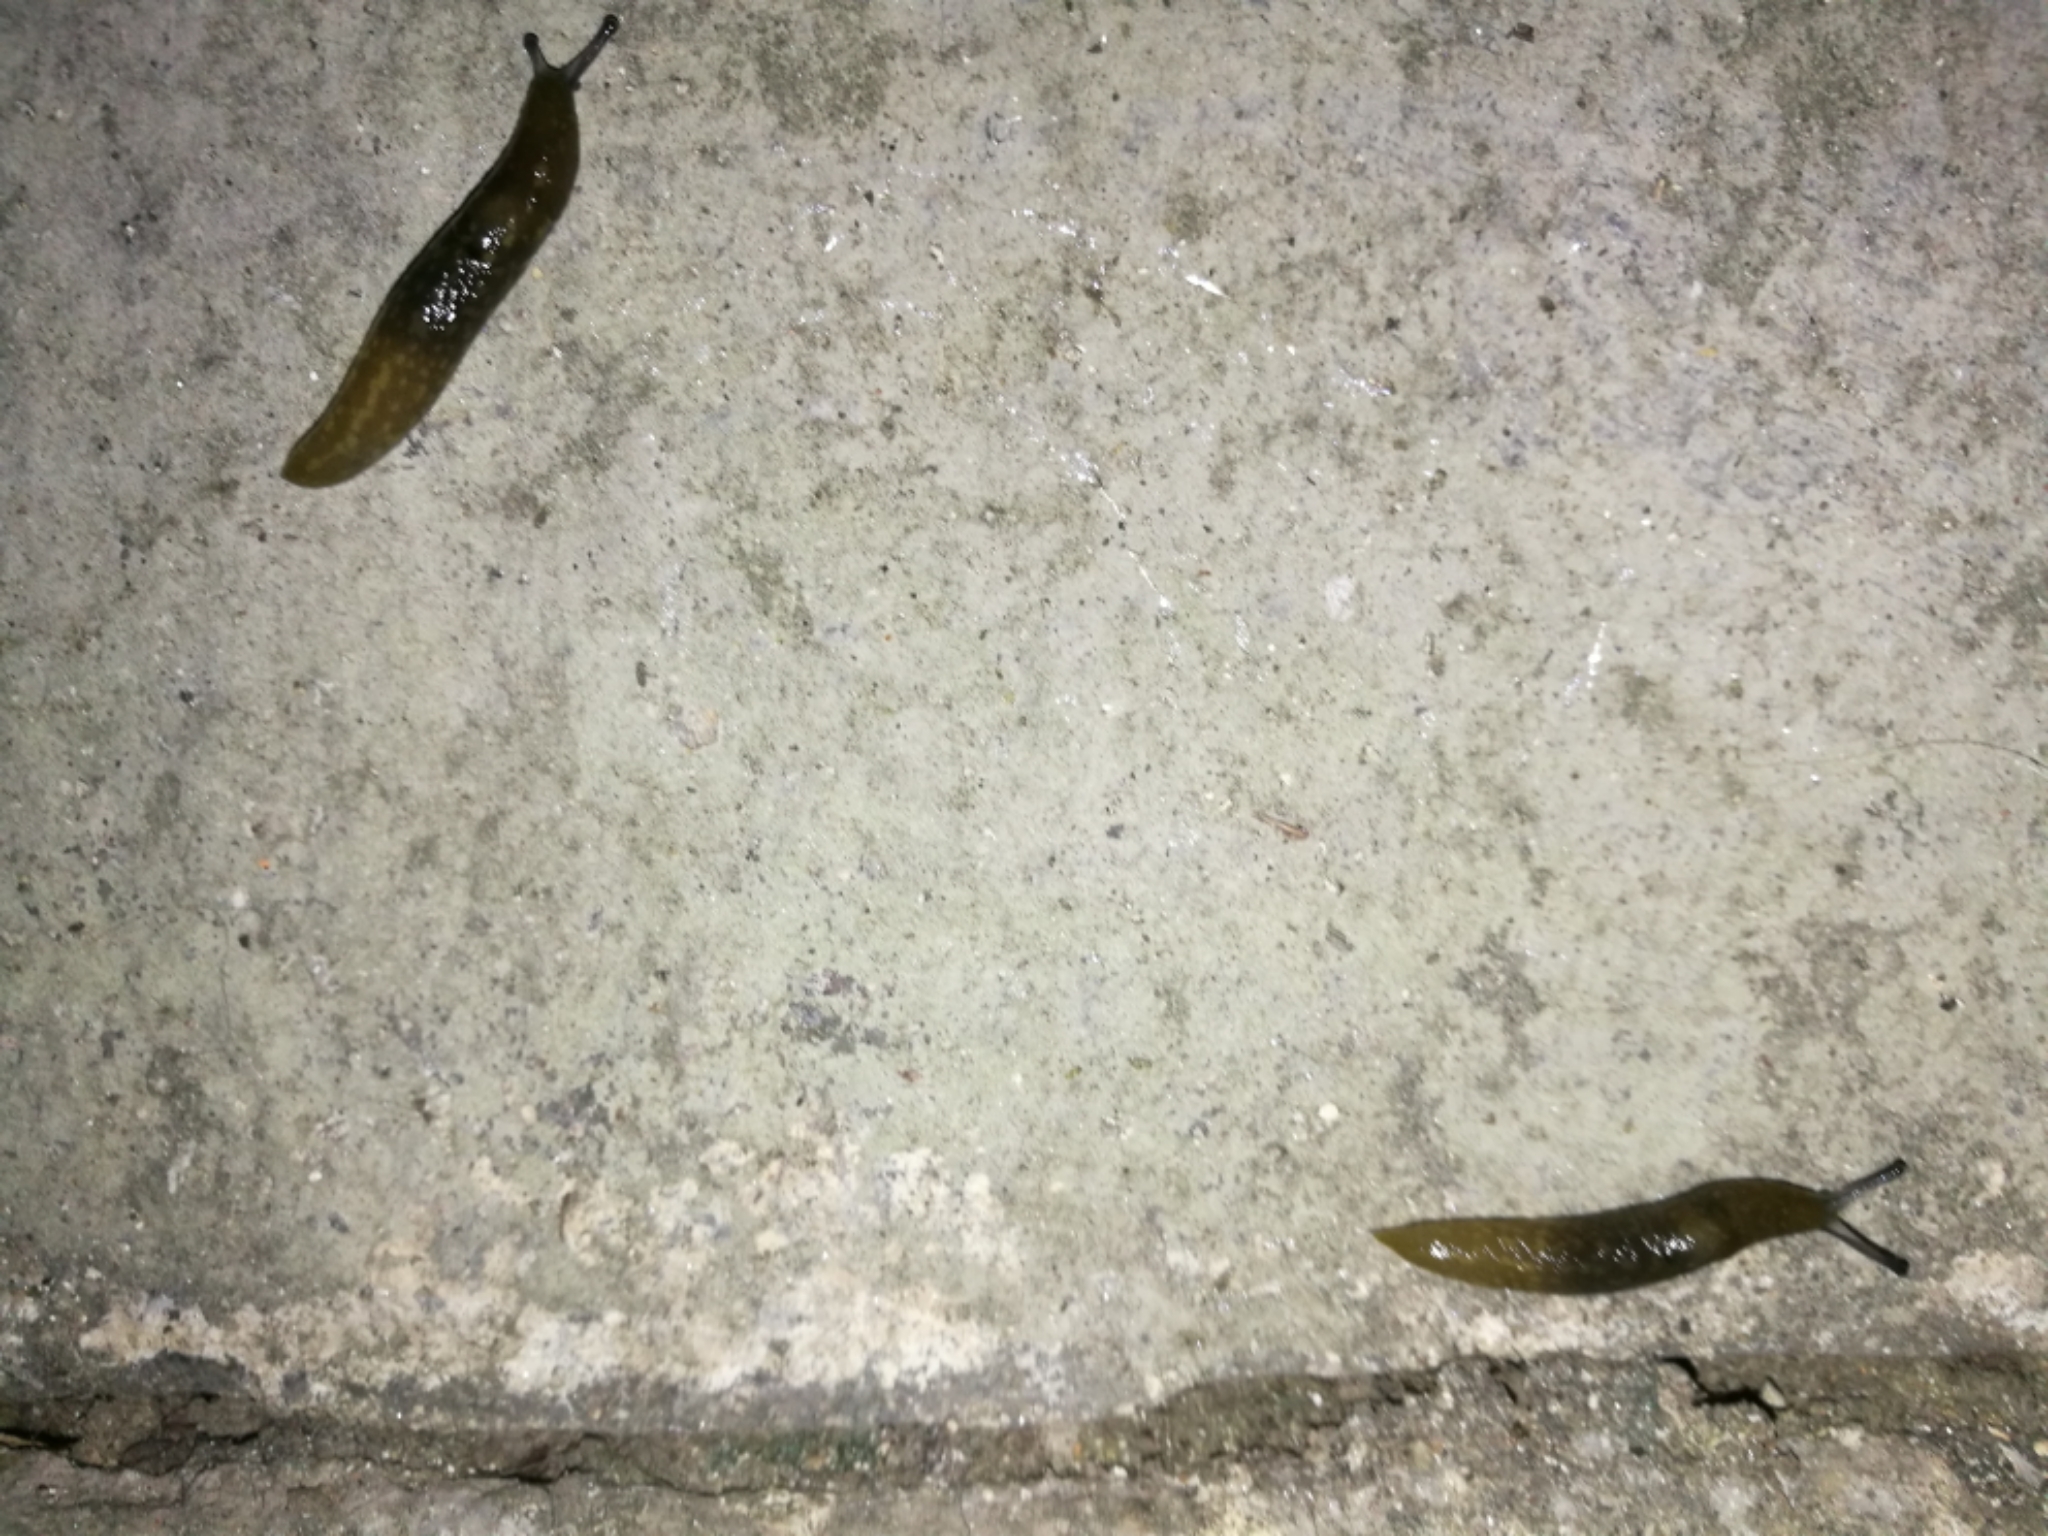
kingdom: Animalia
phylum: Mollusca
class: Gastropoda
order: Stylommatophora
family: Limacidae
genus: Limacus
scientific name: Limacus flavus
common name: Yellow gardenslug
